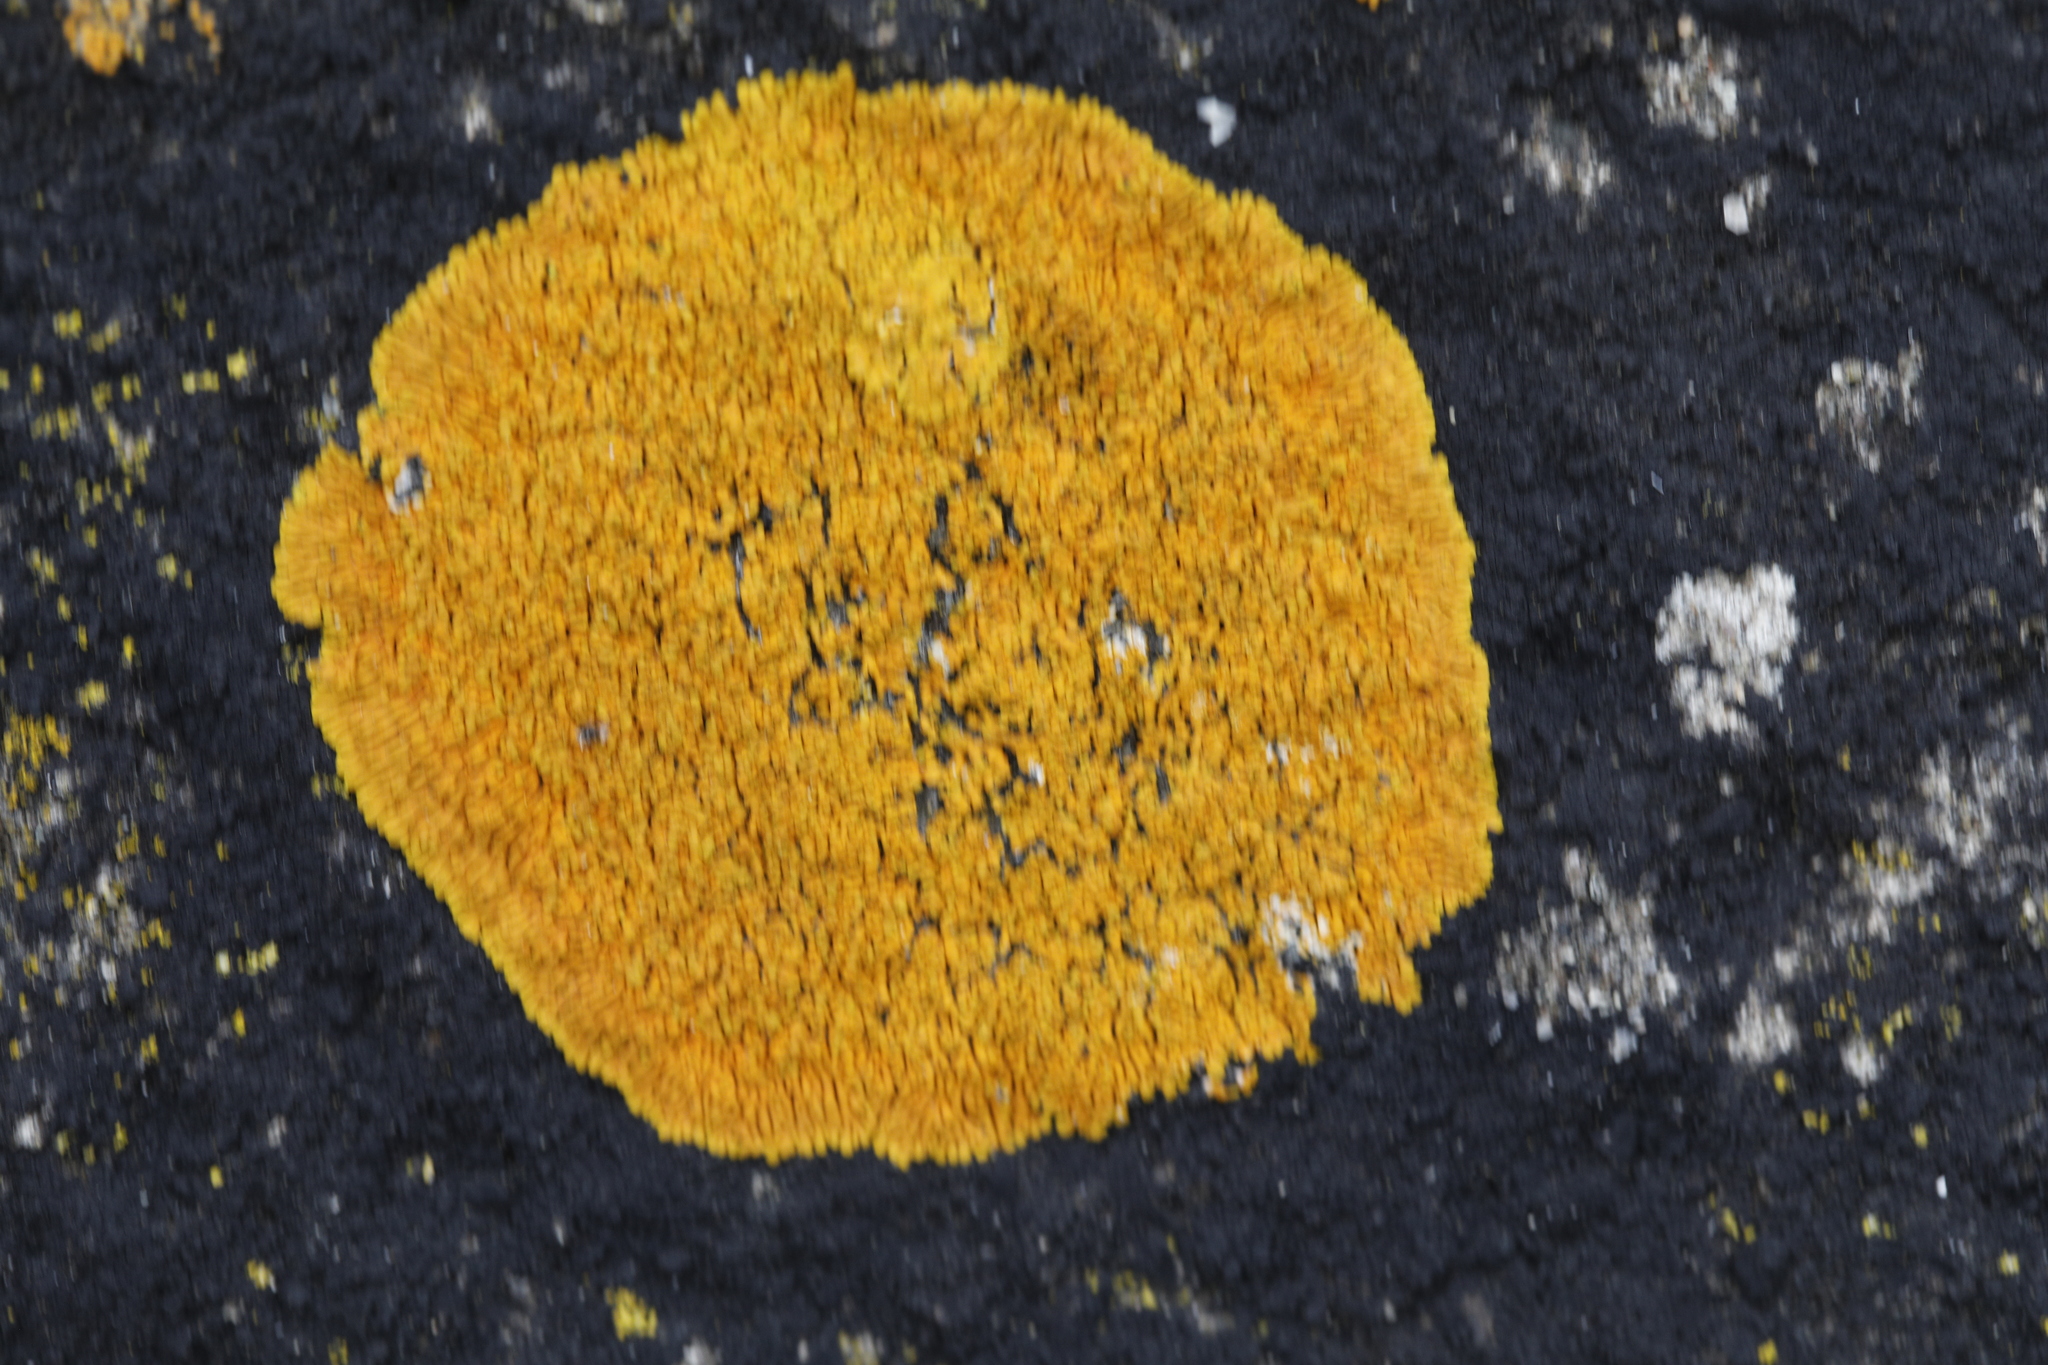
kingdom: Fungi
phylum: Ascomycota
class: Lecanoromycetes
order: Teloschistales
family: Teloschistaceae
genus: Variospora
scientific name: Variospora thallincola
